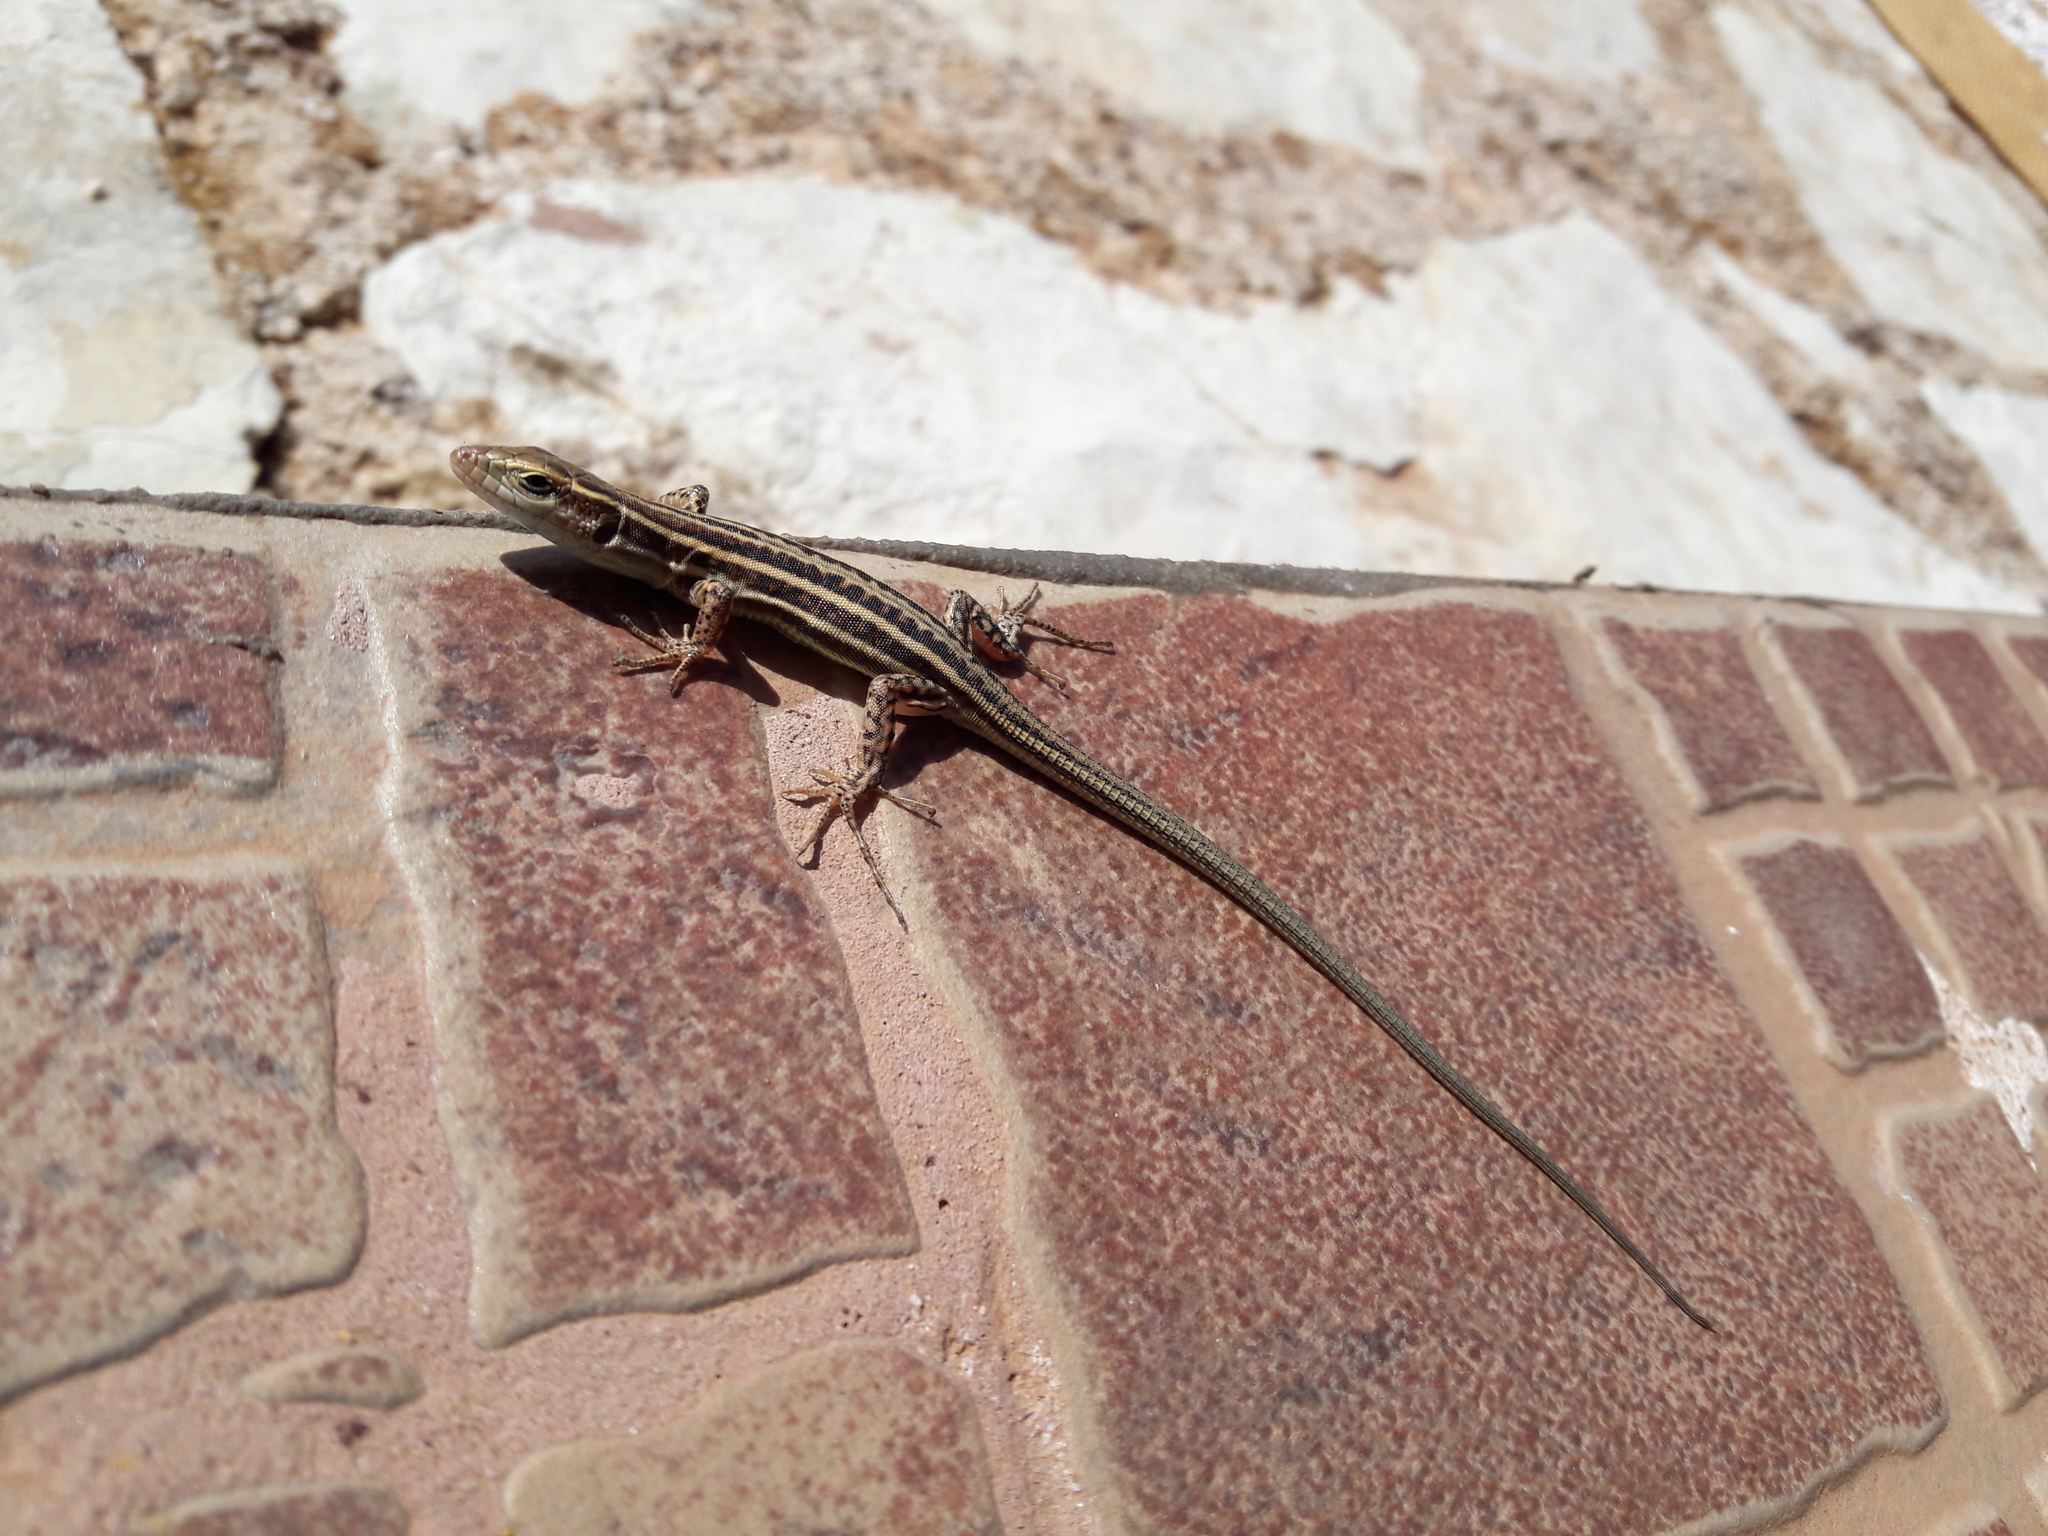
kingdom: Animalia
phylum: Chordata
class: Squamata
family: Lacertidae
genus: Podarcis
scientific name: Podarcis peloponnesiacus
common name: Peloponnese wall lizard
